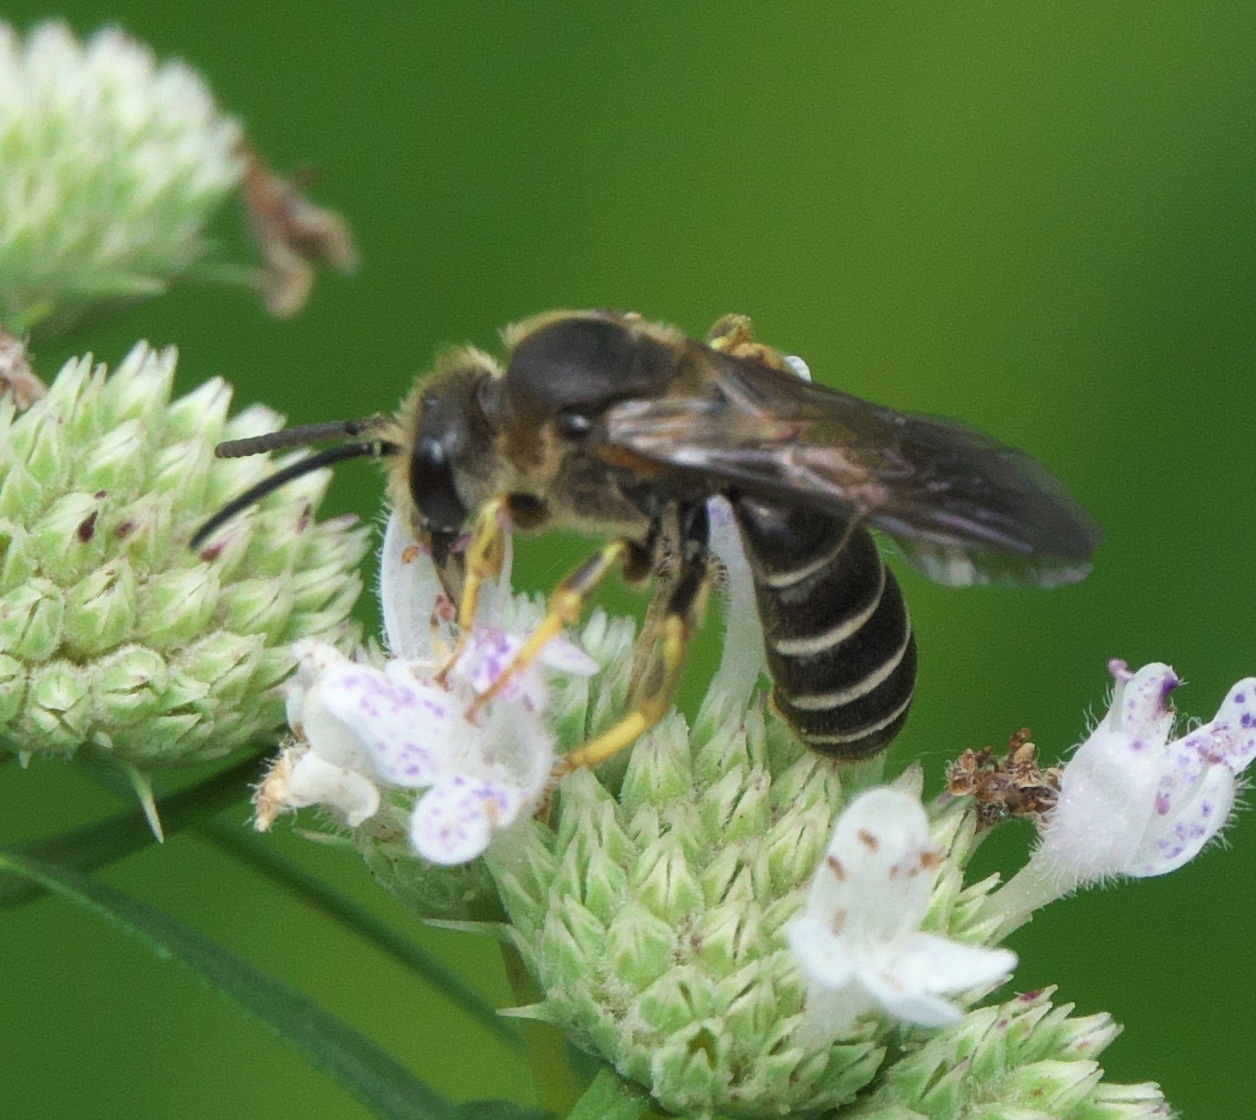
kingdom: Animalia
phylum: Arthropoda
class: Insecta
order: Hymenoptera
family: Halictidae
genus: Halictus
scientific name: Halictus rubicundus
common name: Orange-legged furrow bee
